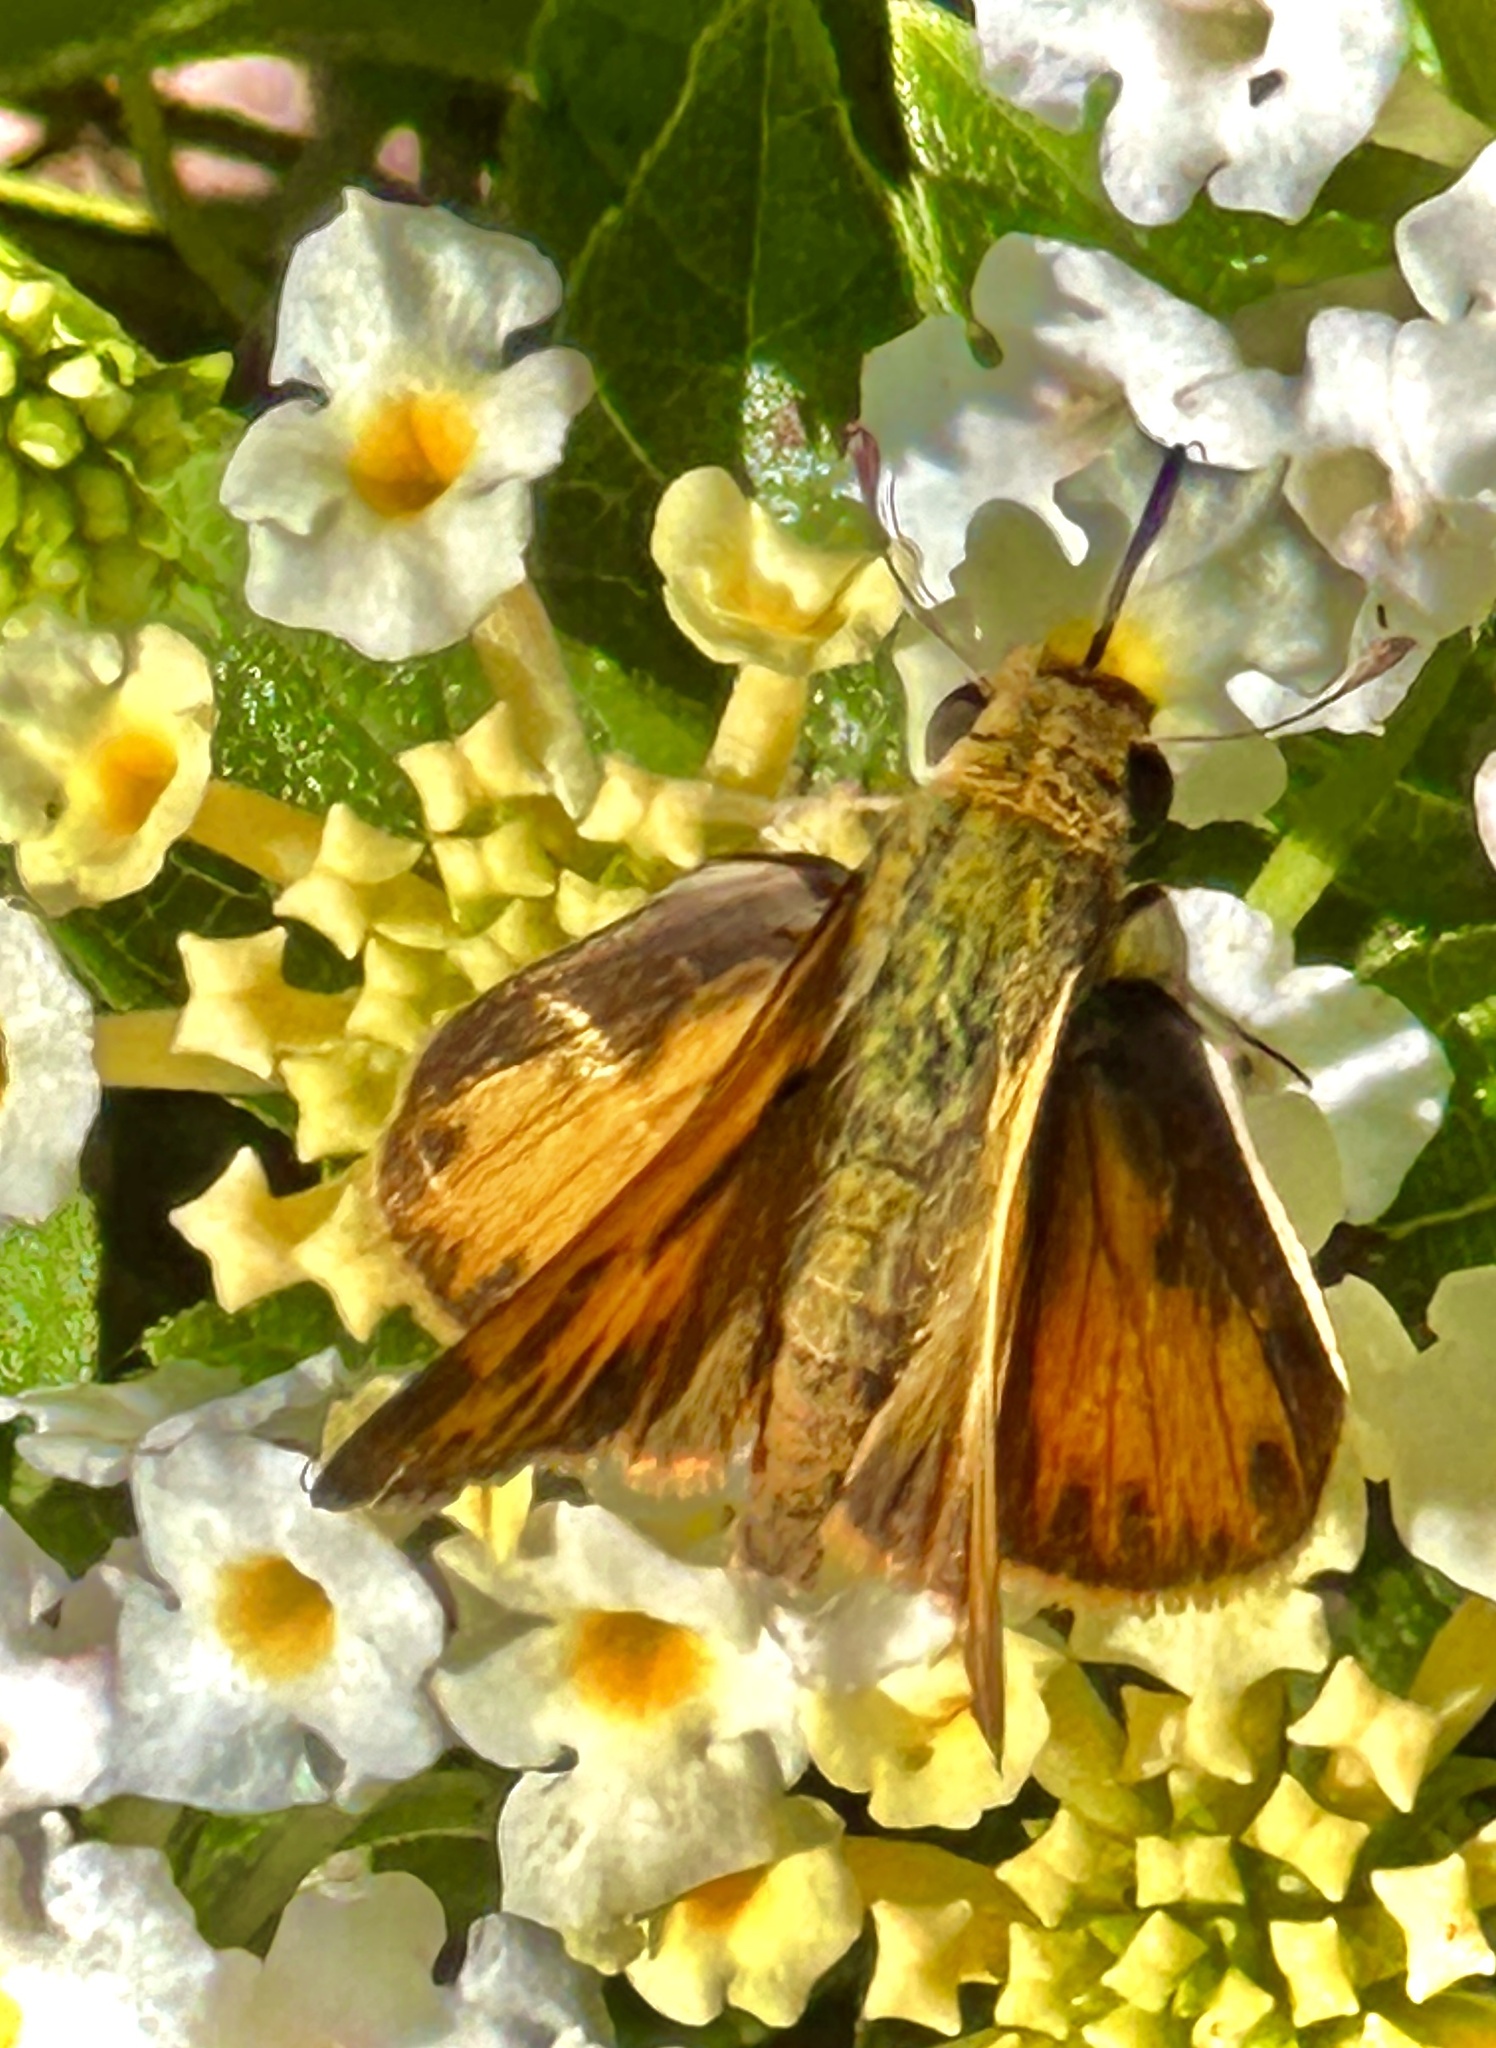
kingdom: Animalia
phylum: Arthropoda
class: Insecta
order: Lepidoptera
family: Hesperiidae
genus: Hylephila
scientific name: Hylephila phyleus
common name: Fiery skipper
